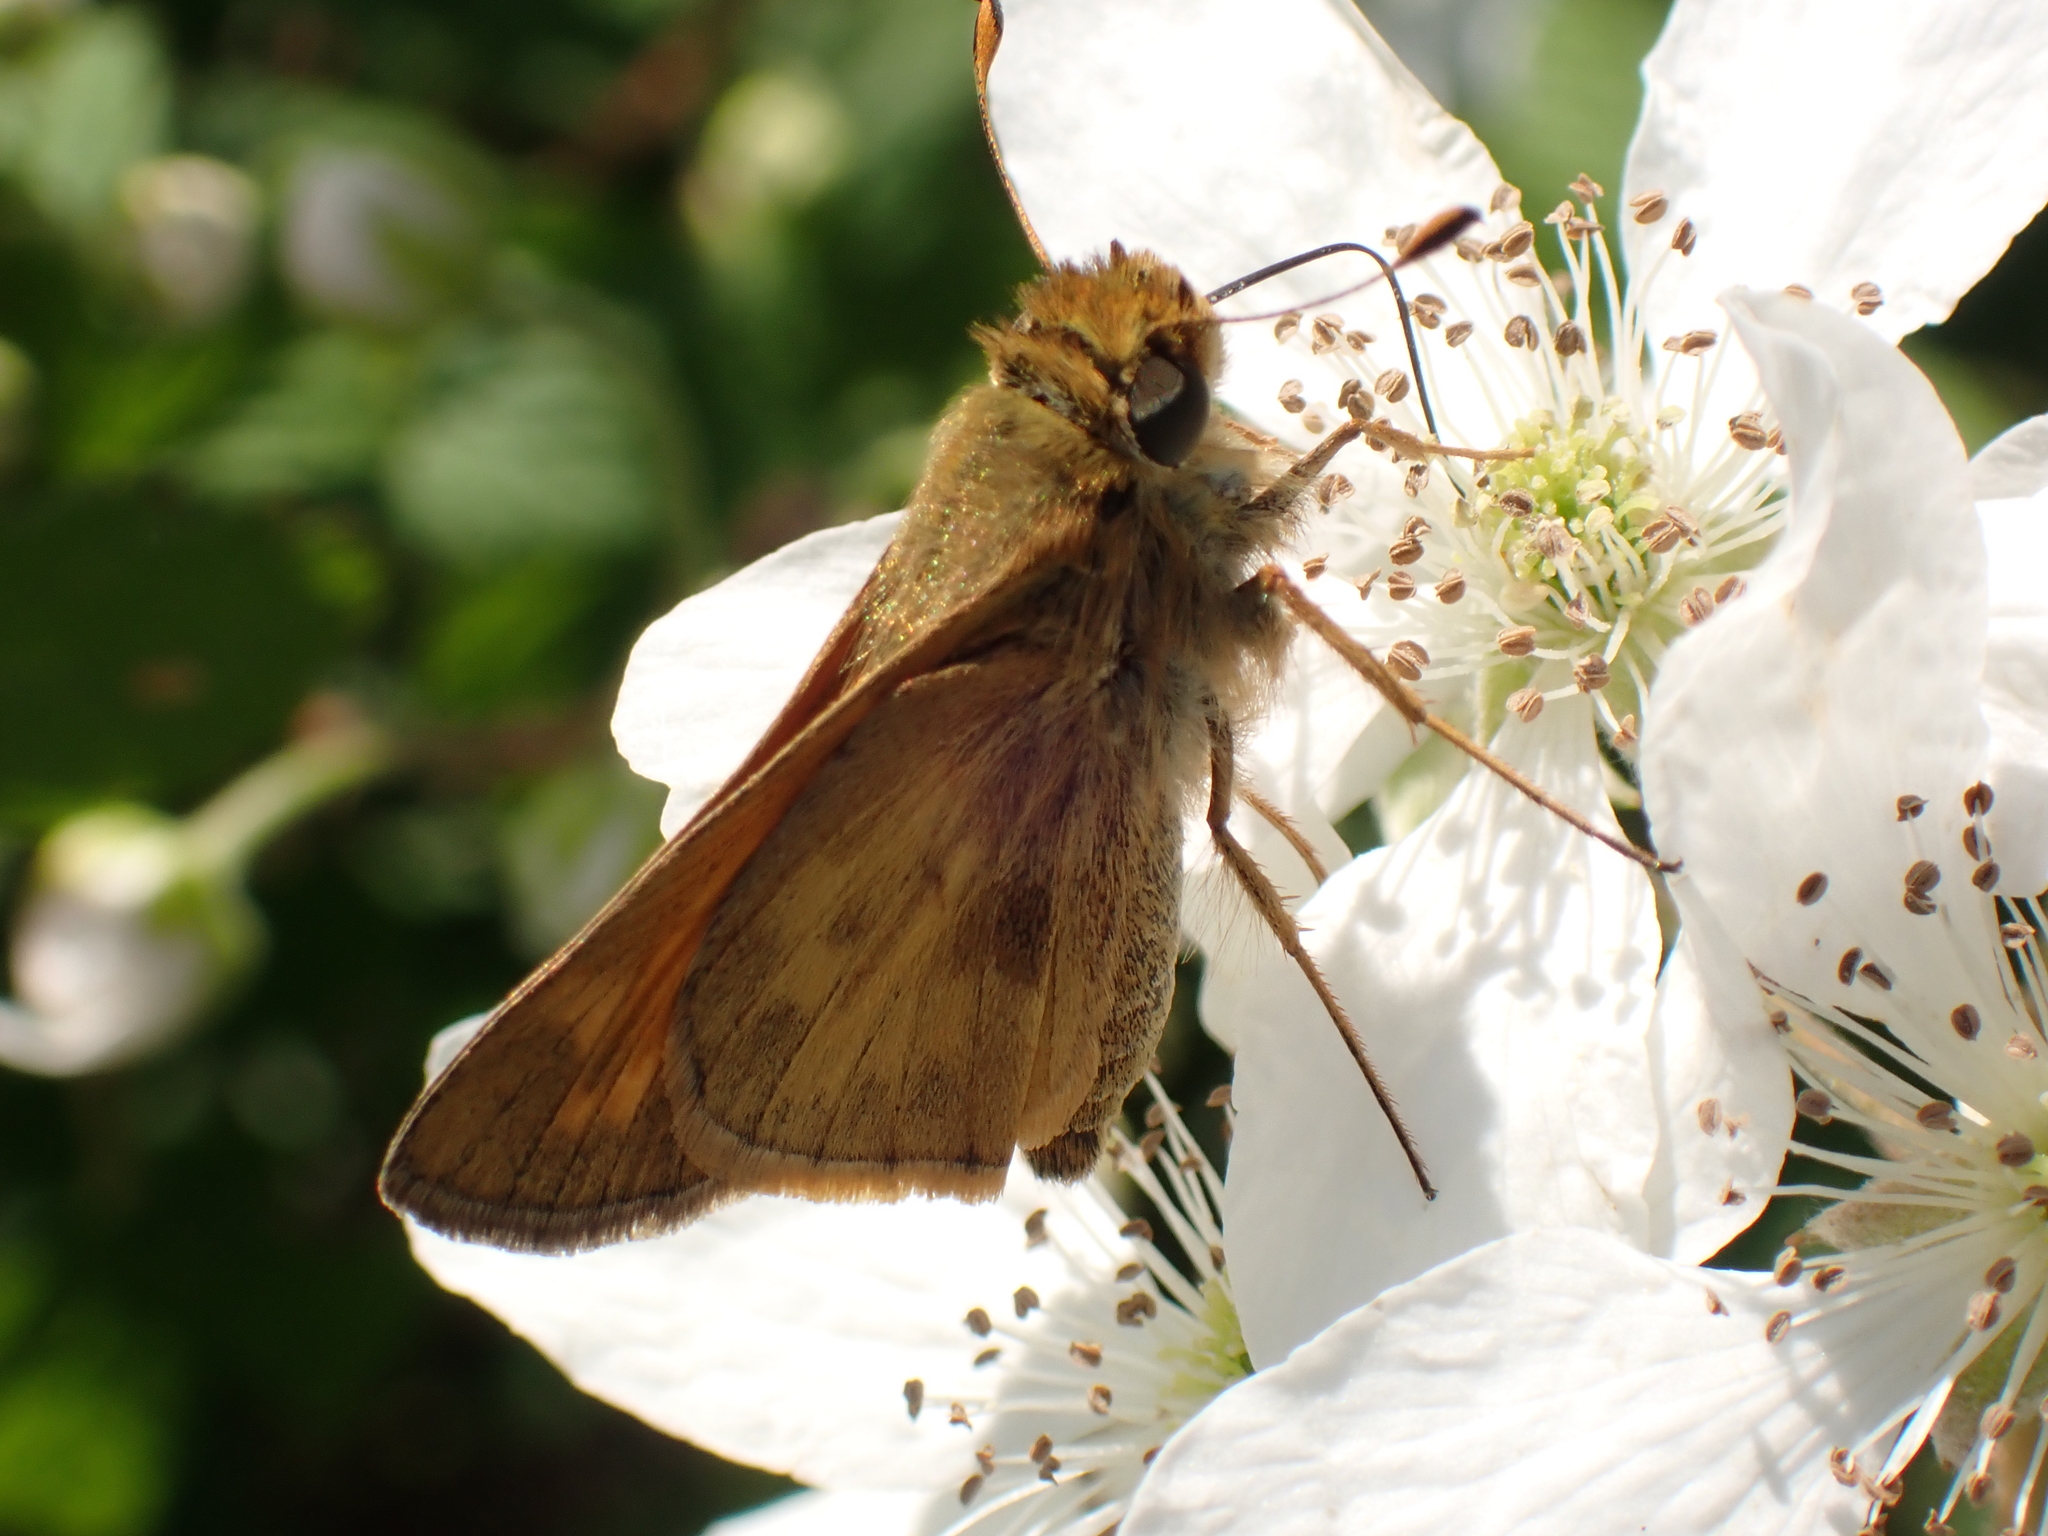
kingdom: Animalia
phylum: Arthropoda
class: Insecta
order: Lepidoptera
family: Hesperiidae
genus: Atalopedes
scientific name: Atalopedes
